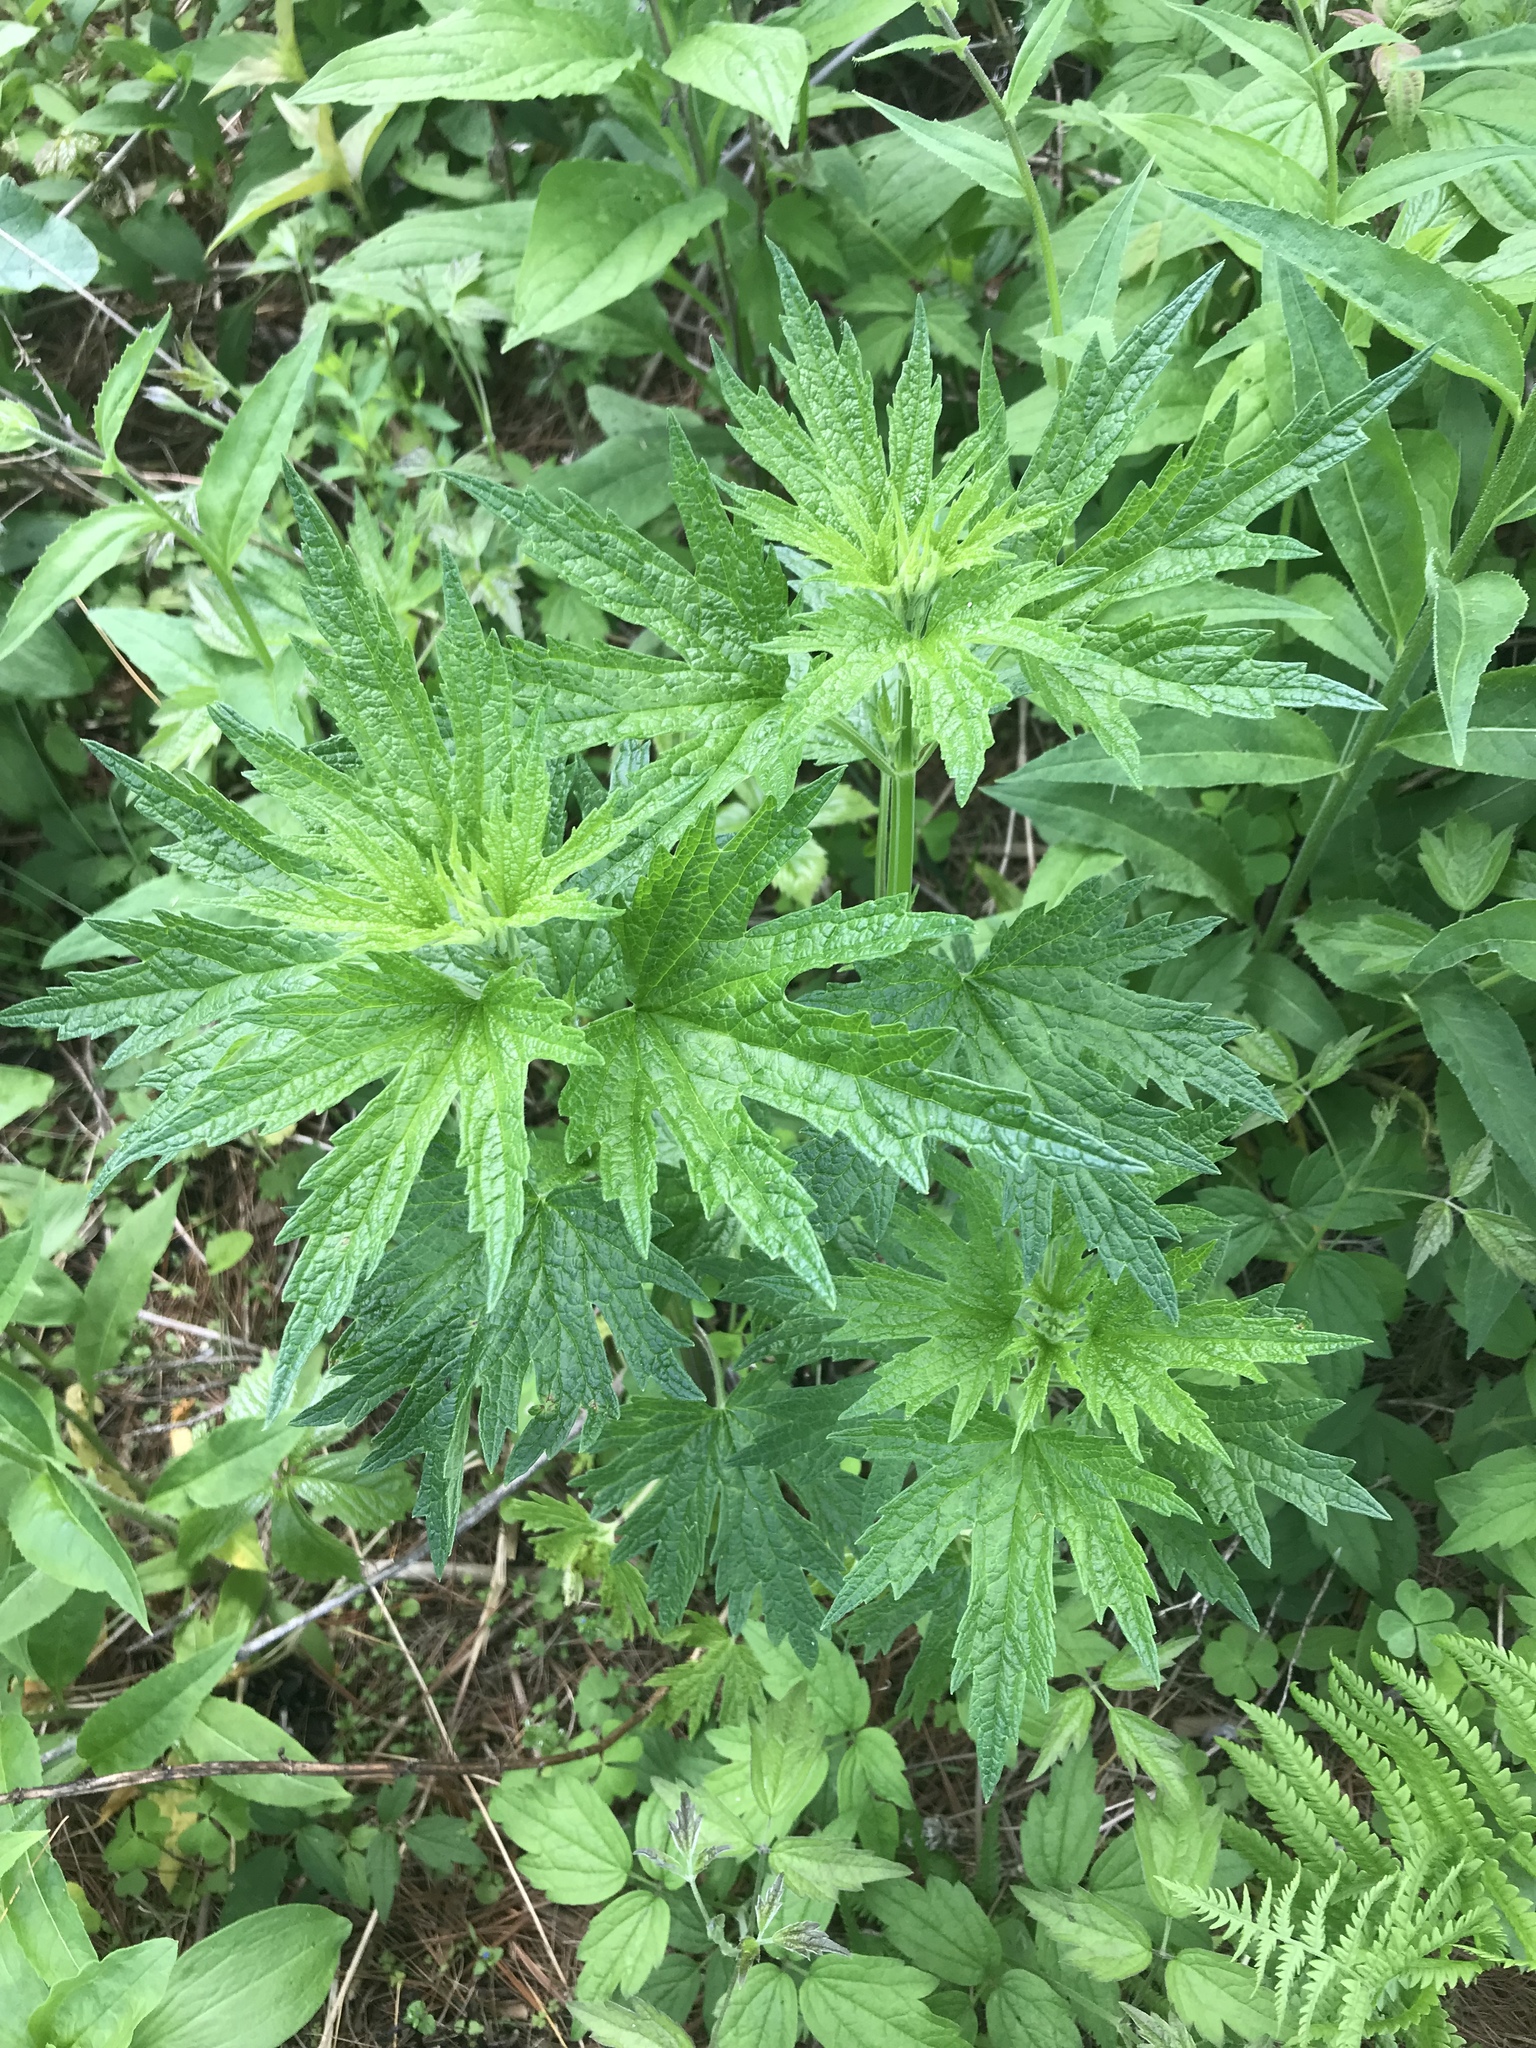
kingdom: Plantae
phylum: Tracheophyta
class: Magnoliopsida
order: Lamiales
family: Lamiaceae
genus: Leonurus
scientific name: Leonurus cardiaca
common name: Motherwort
